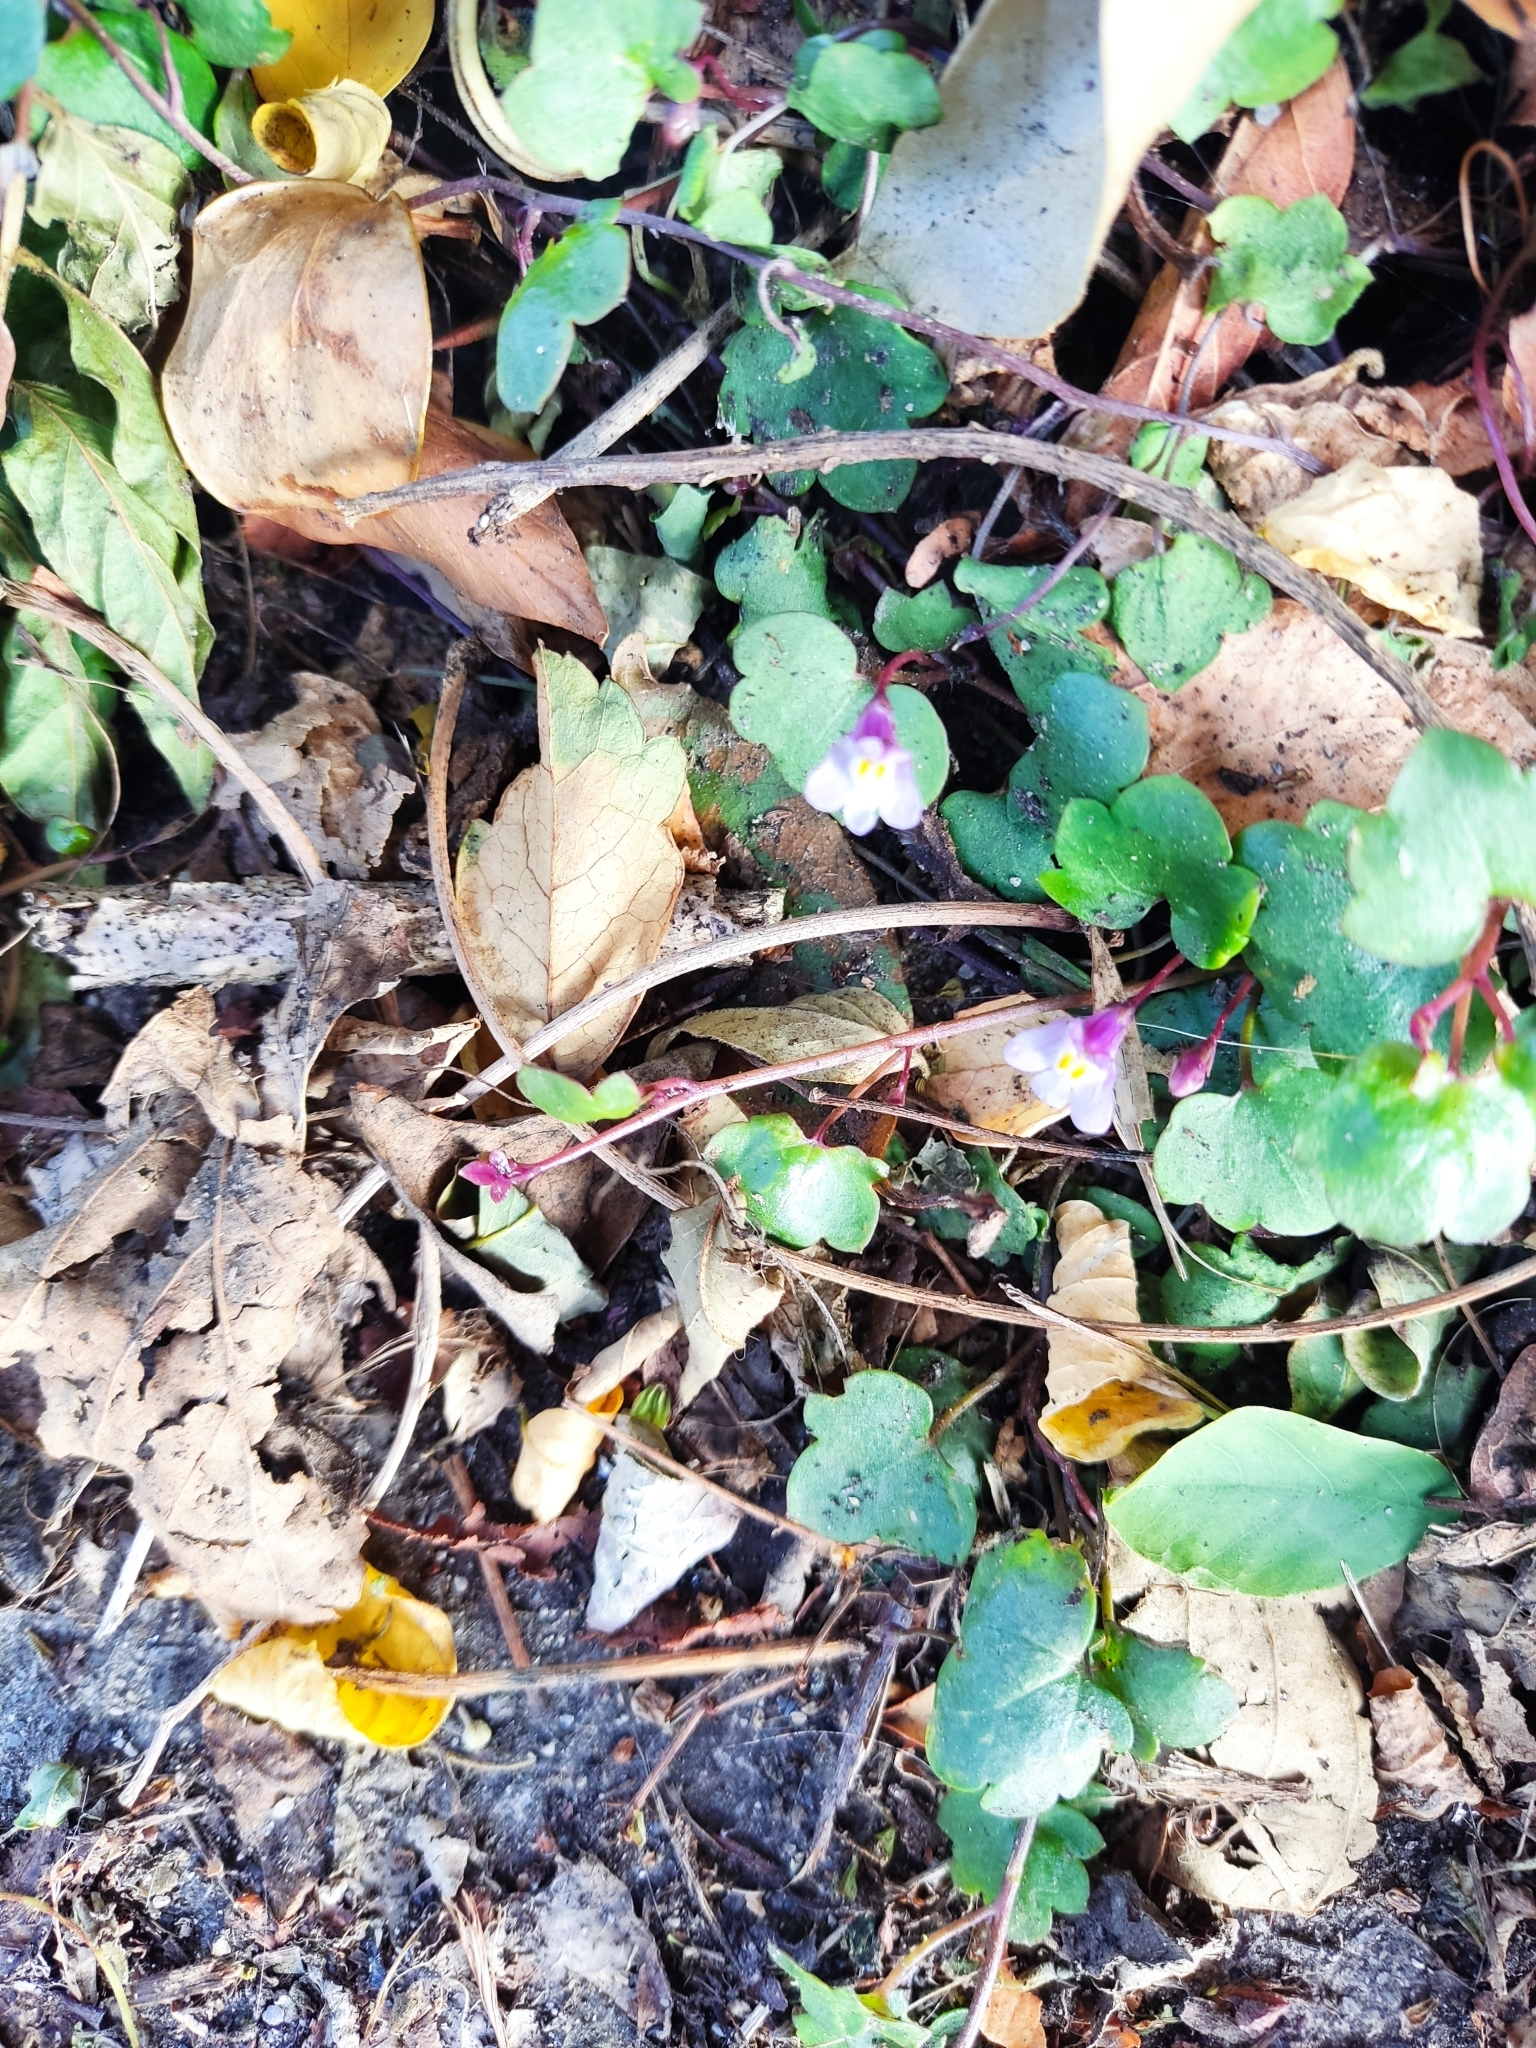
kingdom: Plantae
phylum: Tracheophyta
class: Magnoliopsida
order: Lamiales
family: Plantaginaceae
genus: Cymbalaria
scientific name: Cymbalaria muralis
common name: Ivy-leaved toadflax
